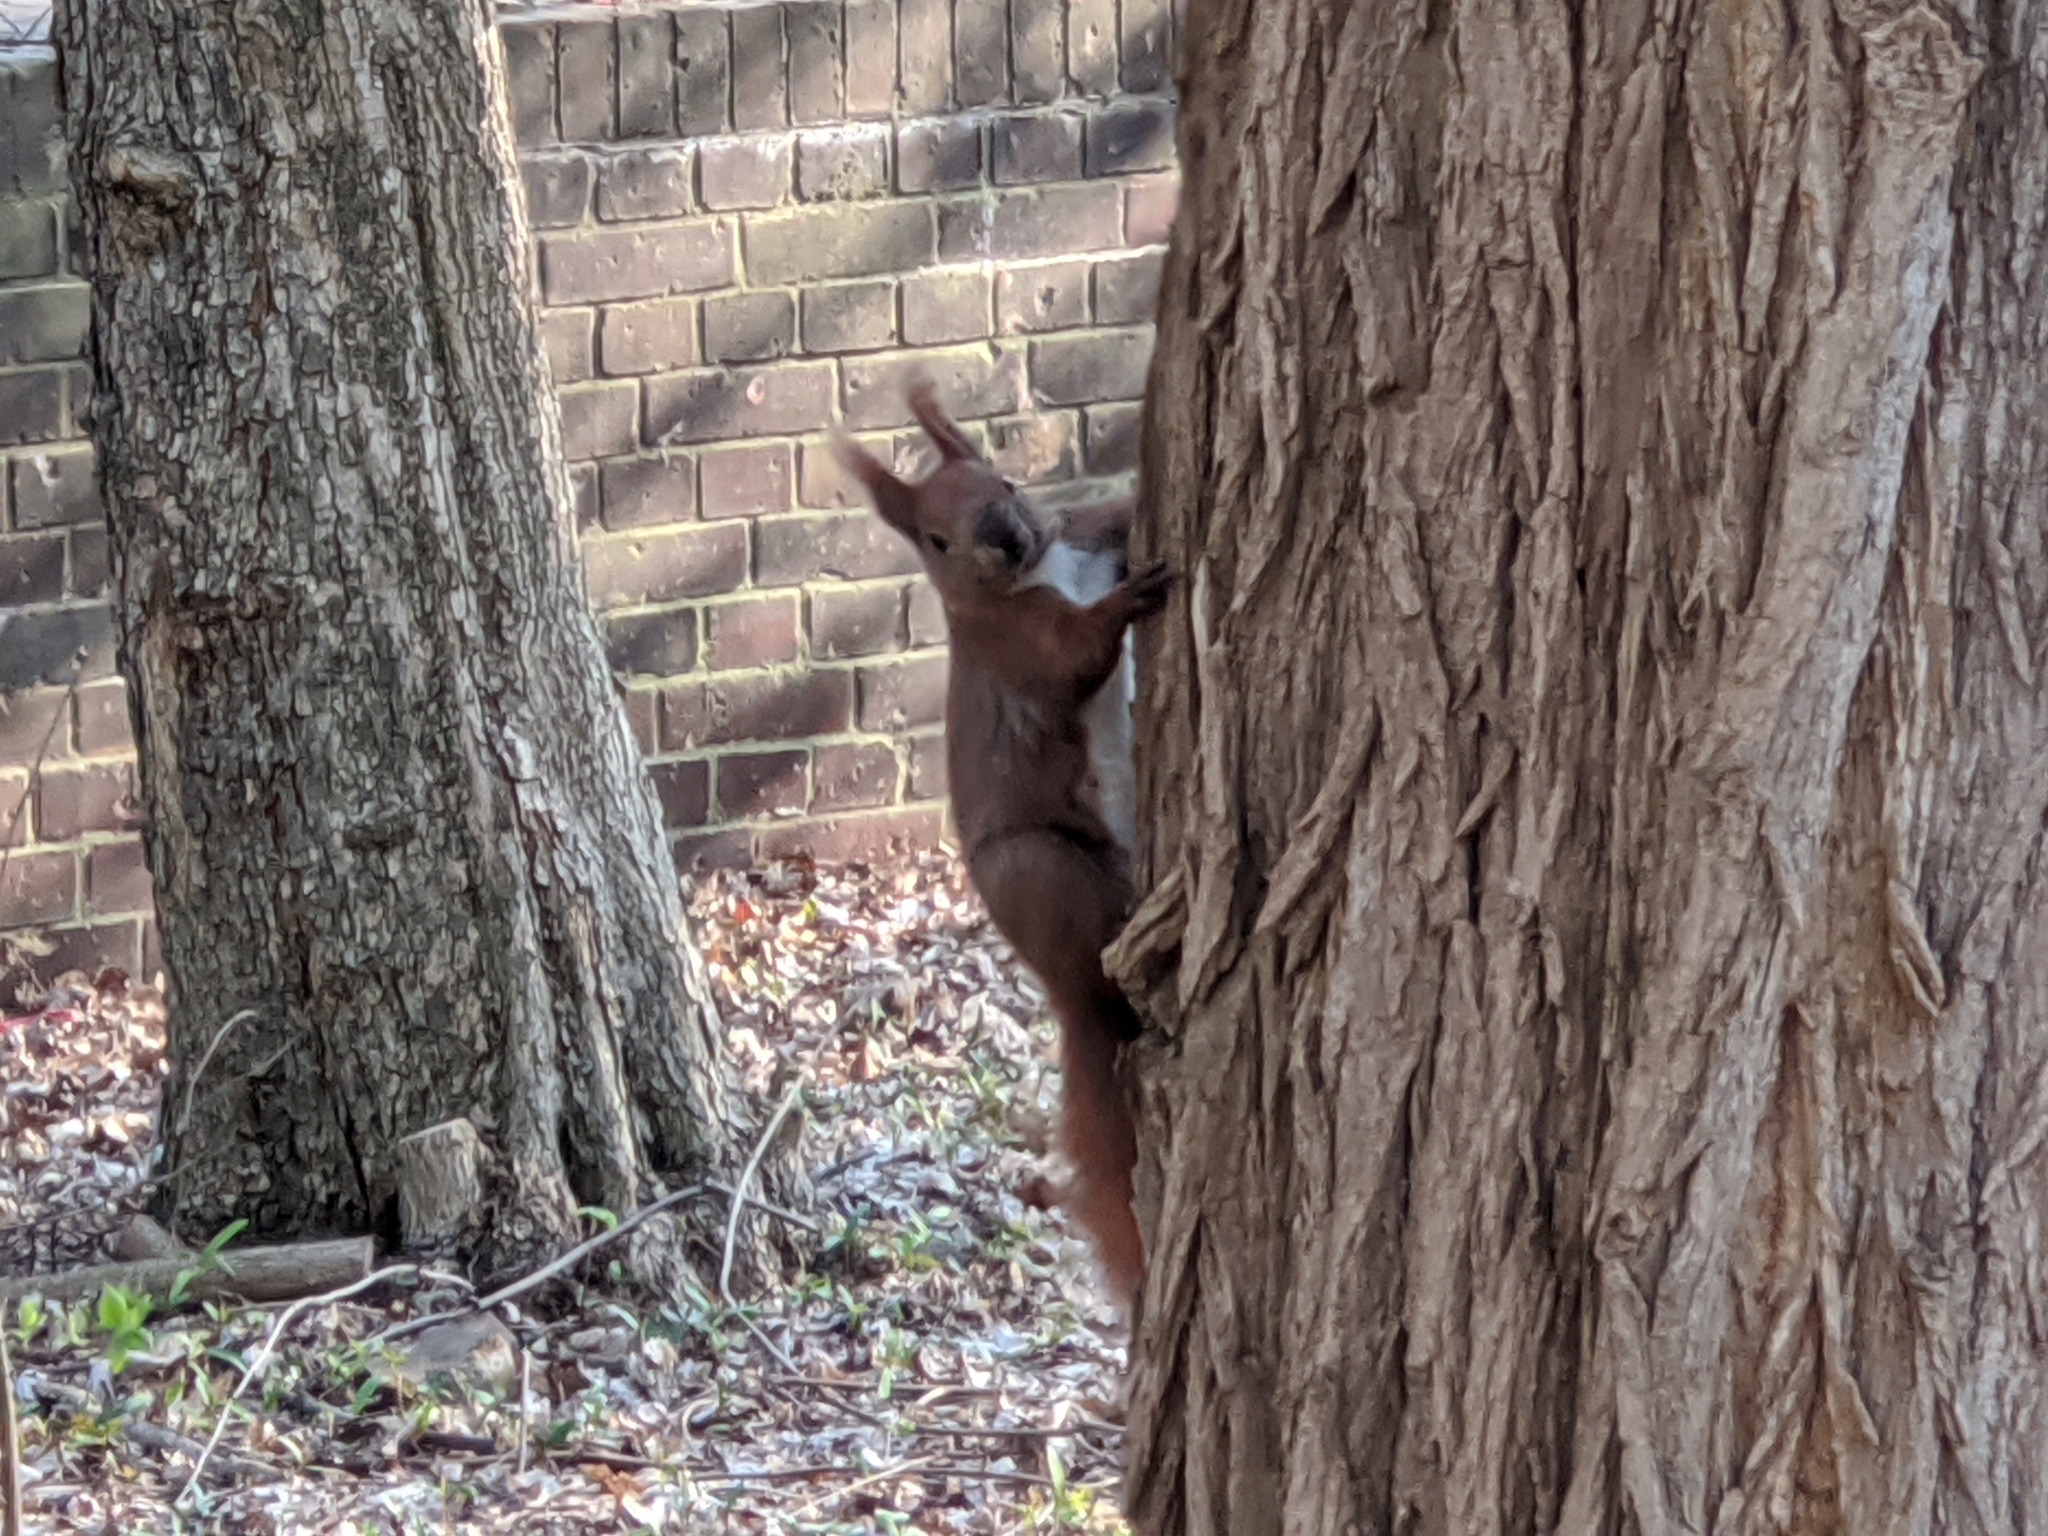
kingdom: Animalia
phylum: Chordata
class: Mammalia
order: Rodentia
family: Sciuridae
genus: Sciurus
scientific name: Sciurus vulgaris
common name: Eurasian red squirrel
